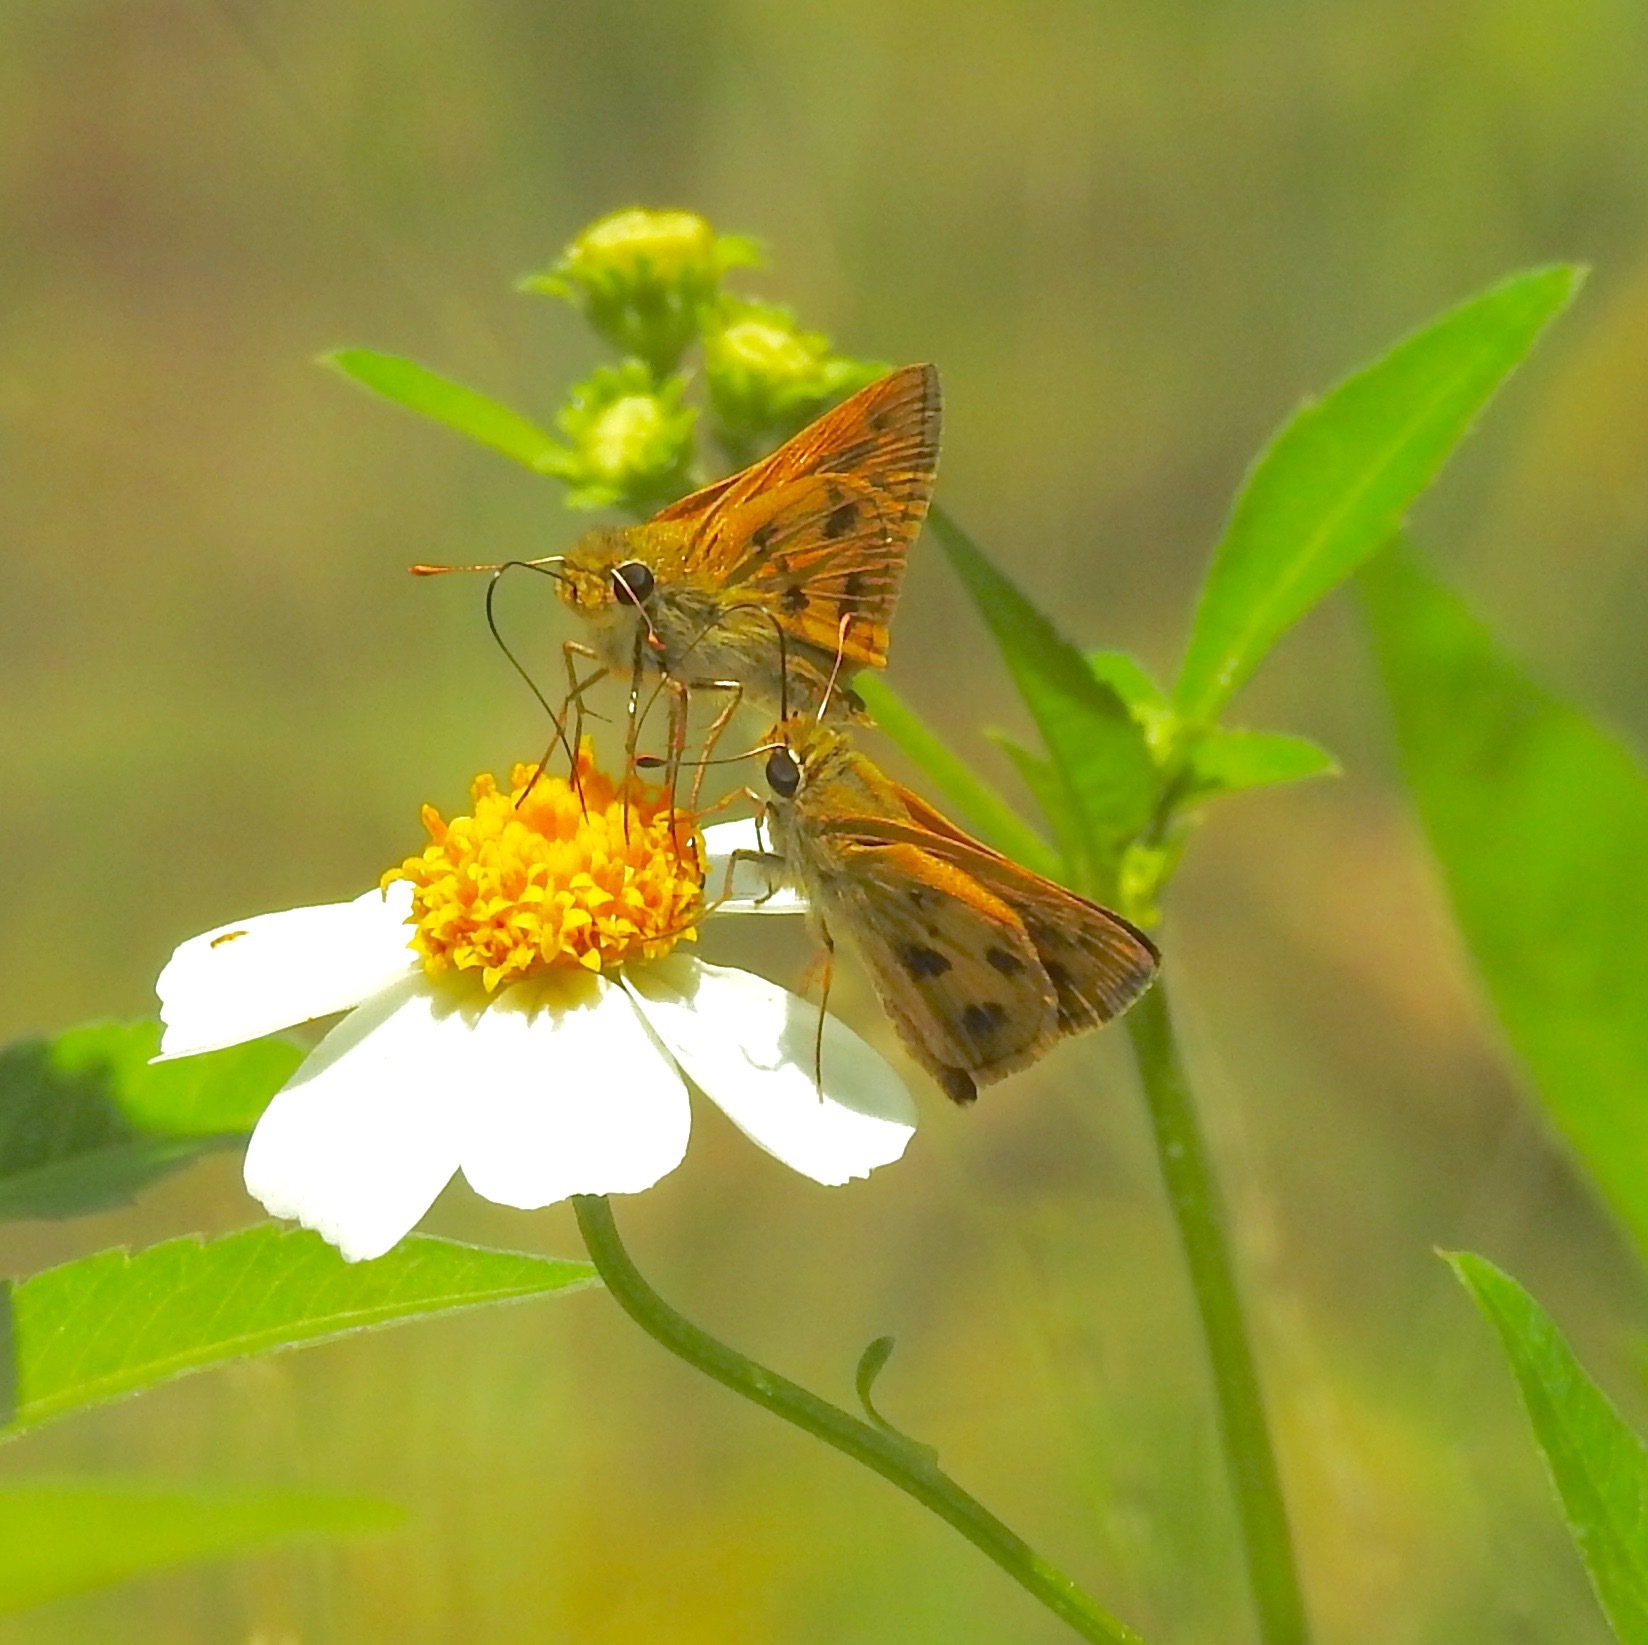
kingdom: Animalia
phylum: Arthropoda
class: Insecta
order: Lepidoptera
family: Hesperiidae
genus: Polites
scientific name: Polites vibex
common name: Whirlabout
